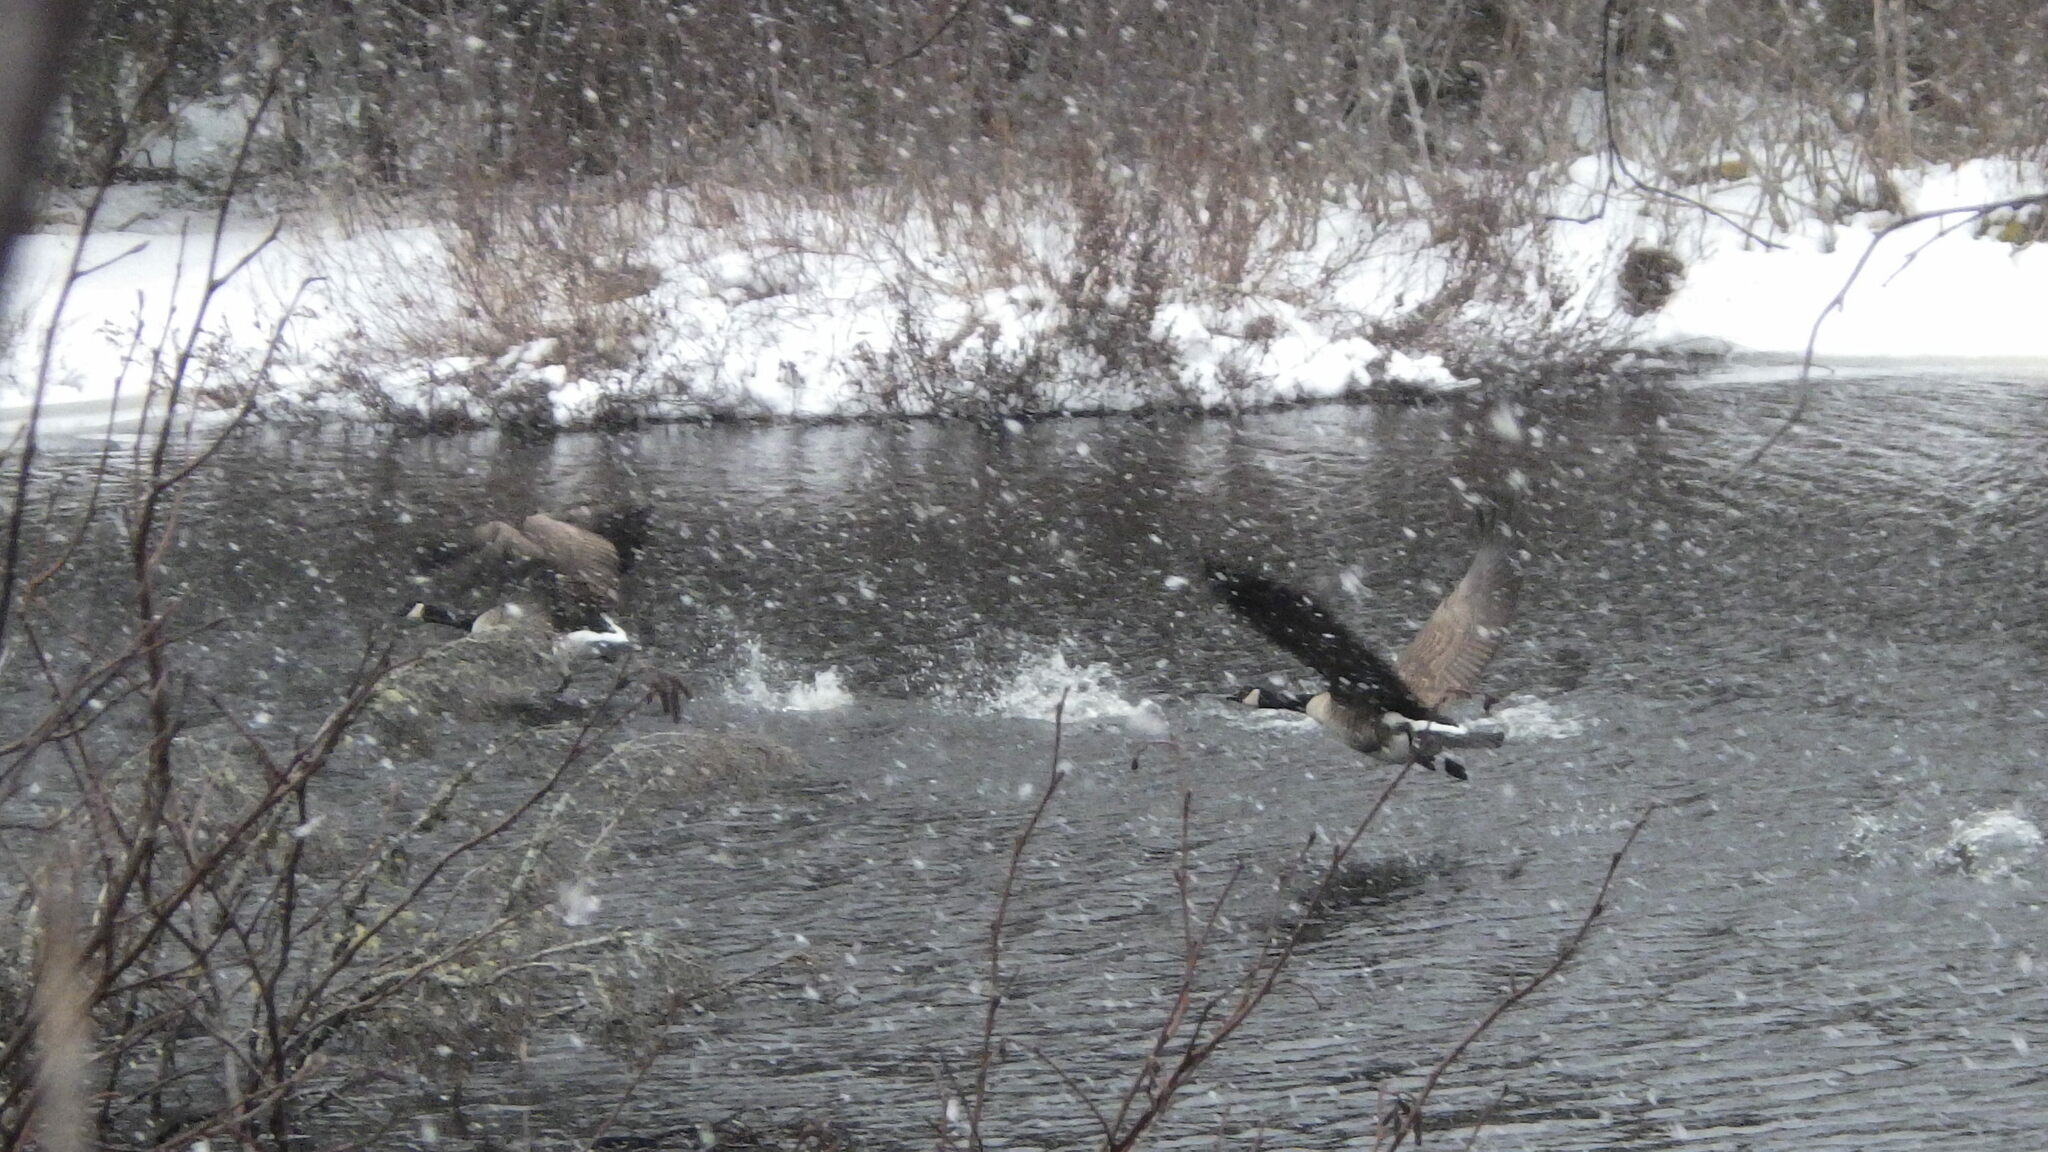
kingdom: Animalia
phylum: Chordata
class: Aves
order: Anseriformes
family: Anatidae
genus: Branta
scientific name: Branta canadensis
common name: Canada goose
